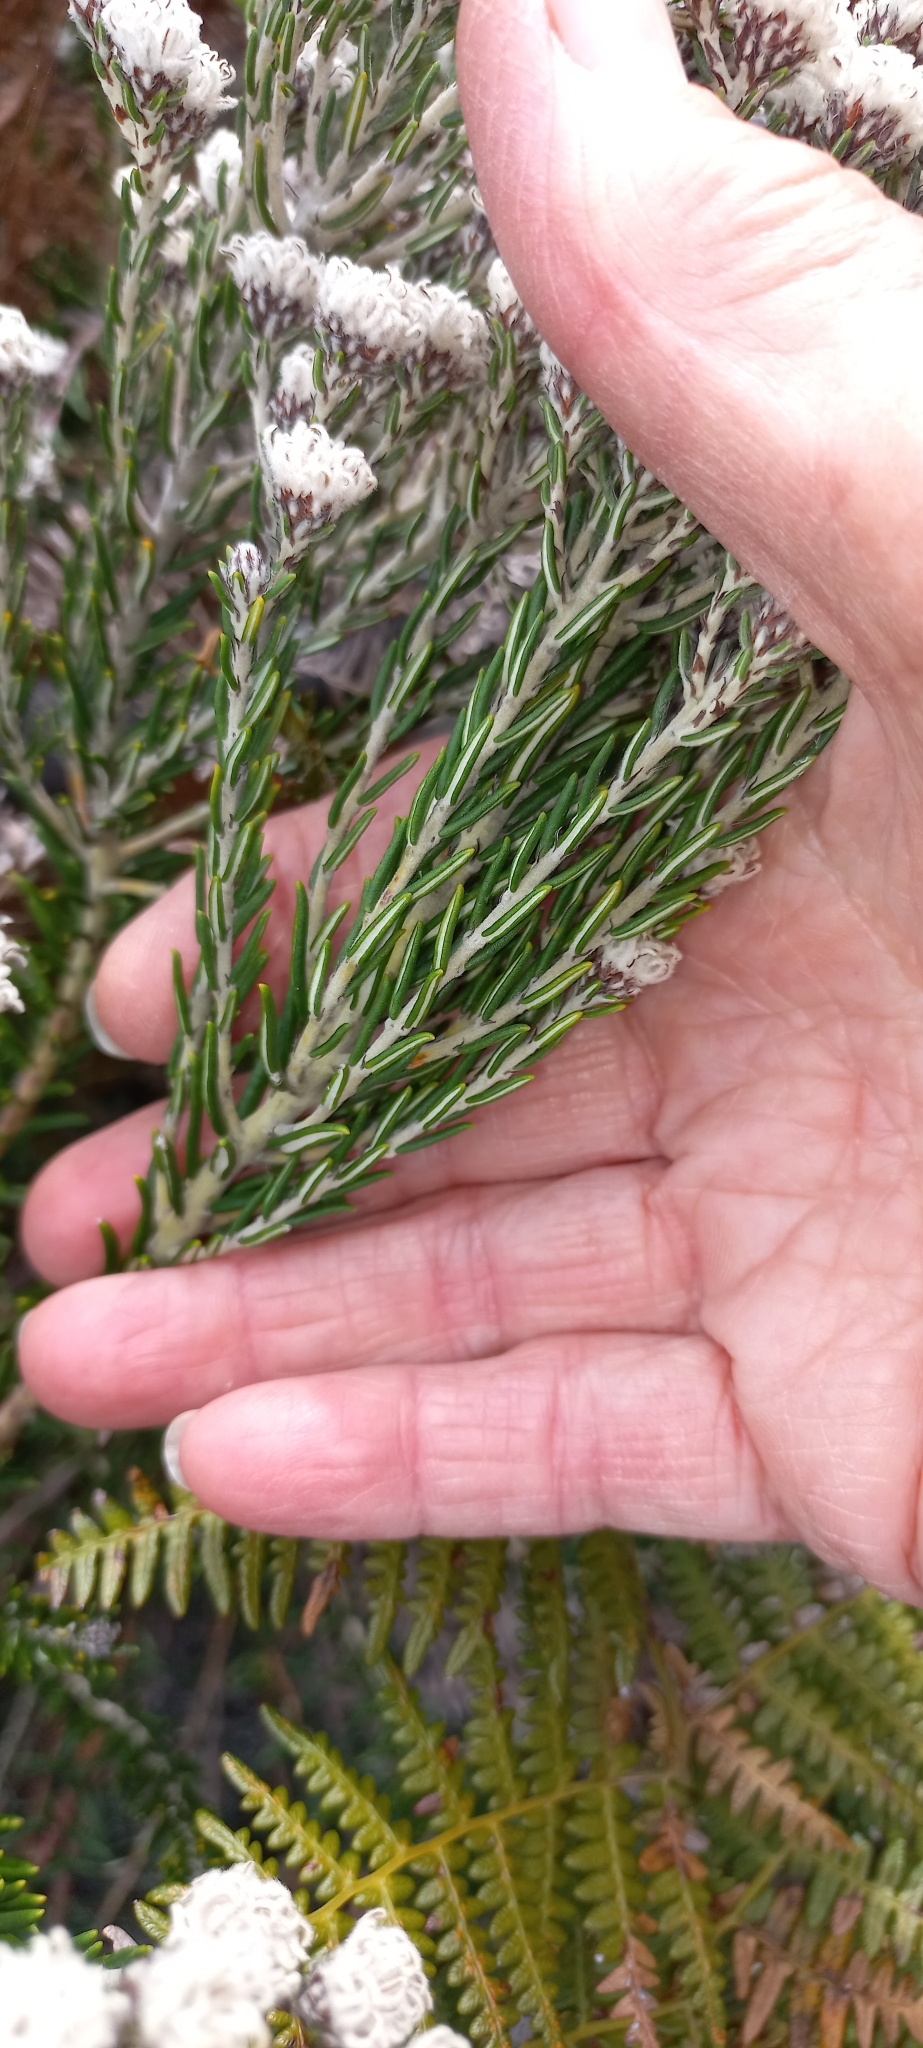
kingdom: Plantae
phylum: Tracheophyta
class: Magnoliopsida
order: Rosales
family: Rhamnaceae
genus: Trichocephalus
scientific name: Trichocephalus stipularis
